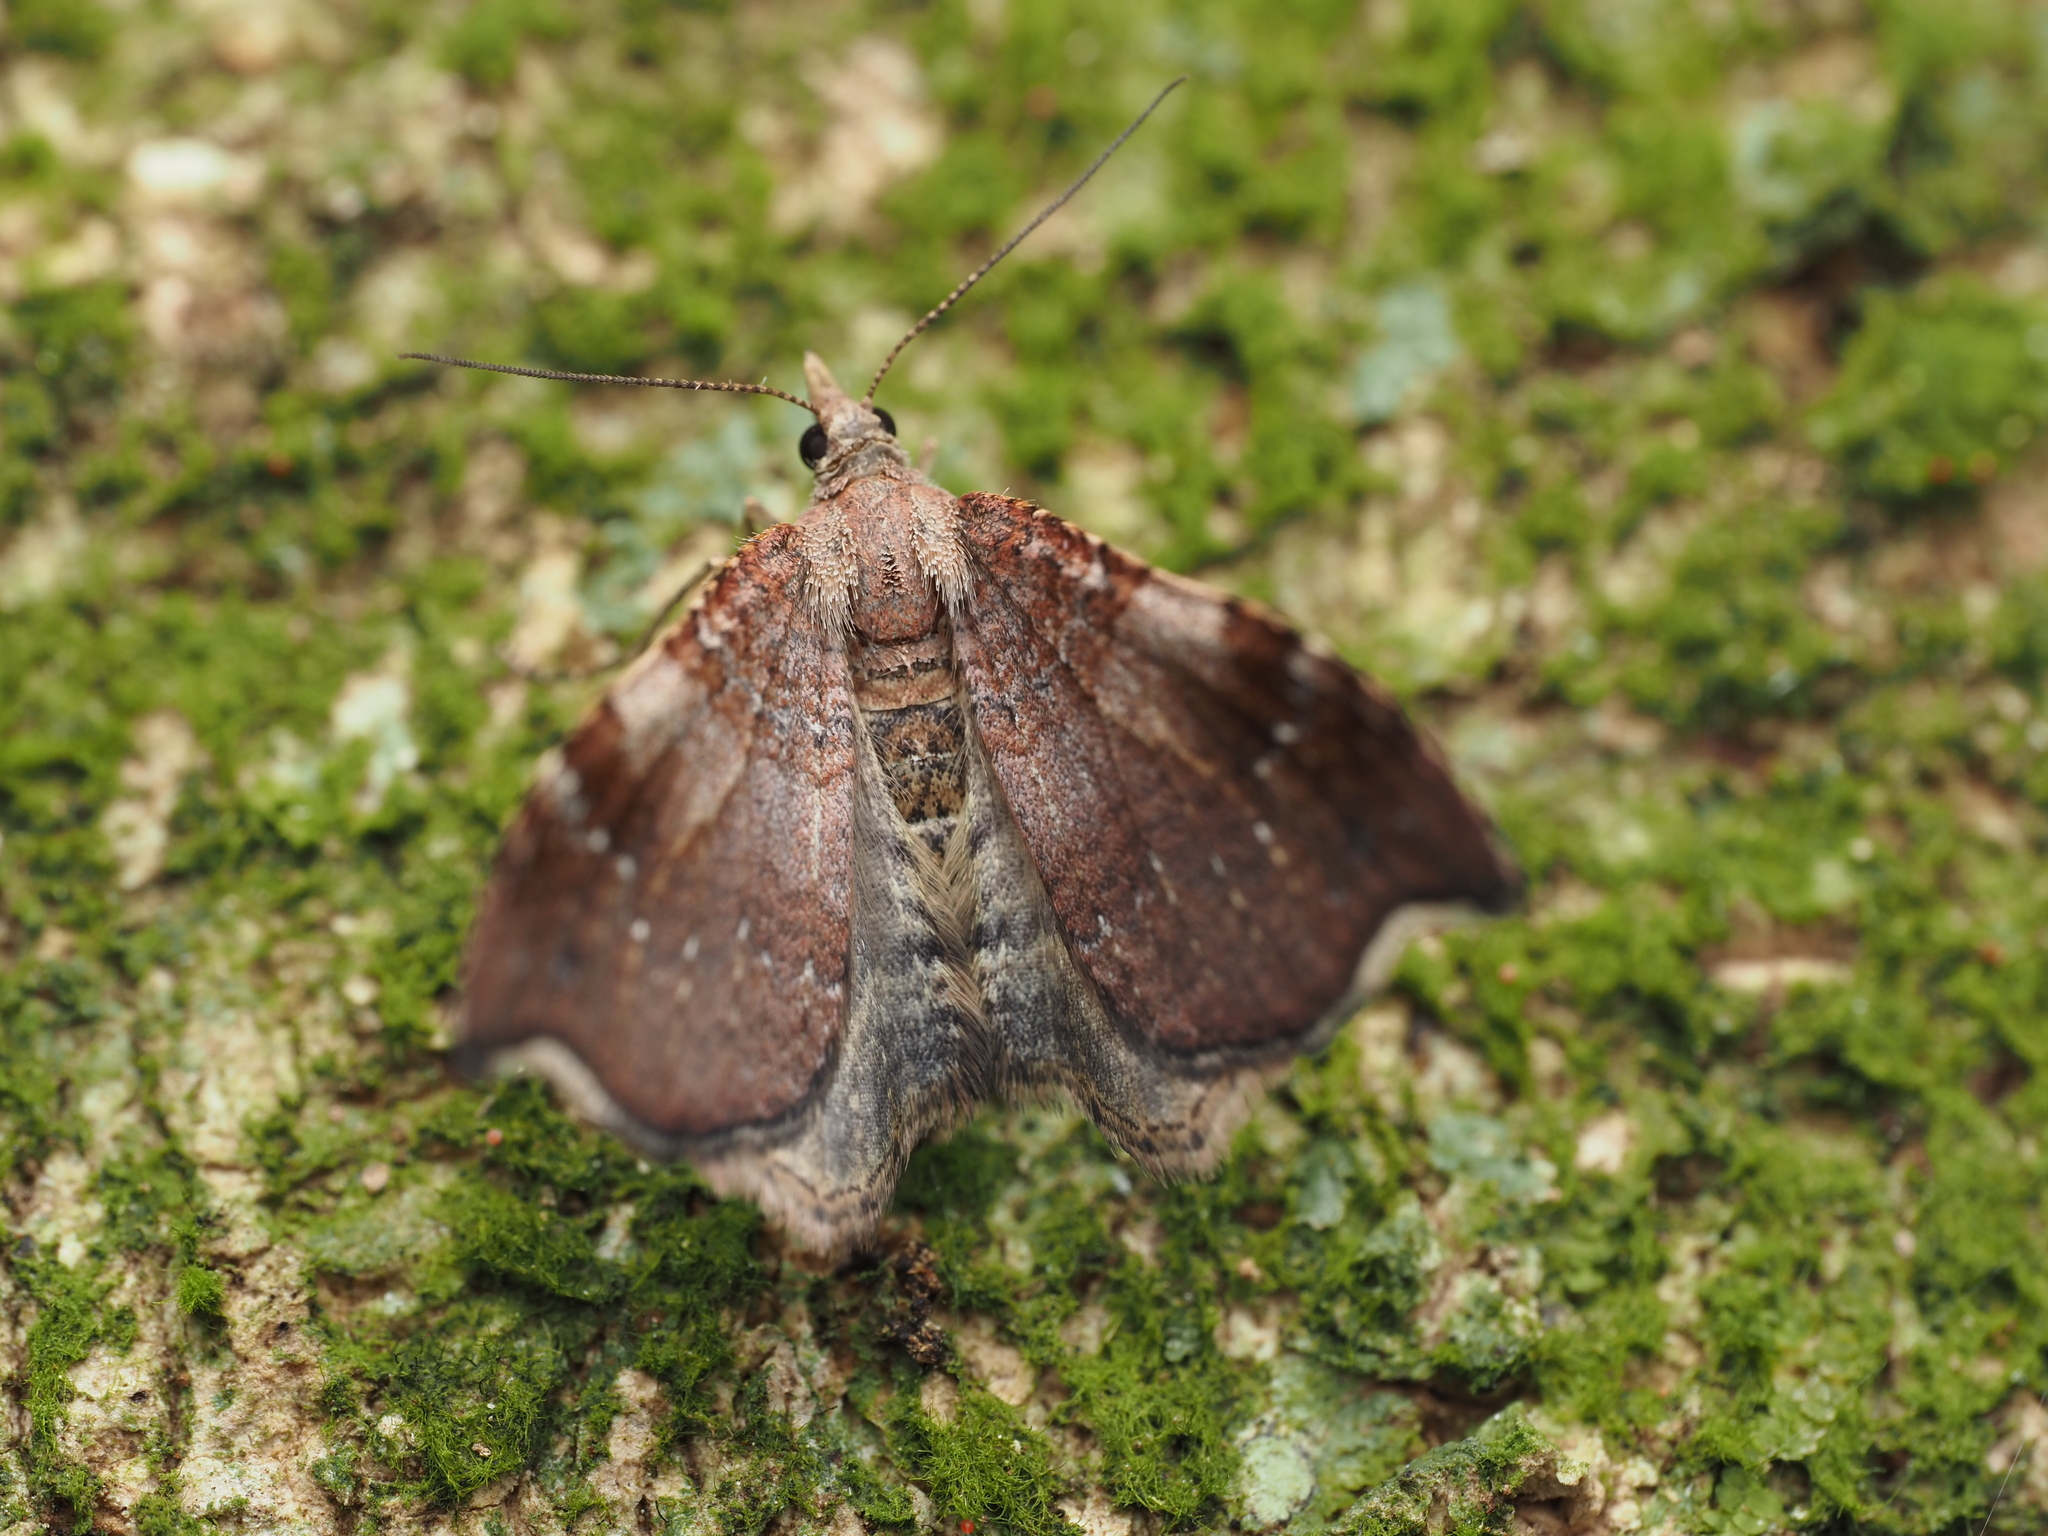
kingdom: Animalia
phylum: Arthropoda
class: Insecta
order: Lepidoptera
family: Geometridae
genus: Homodotis
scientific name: Homodotis megaspilata
